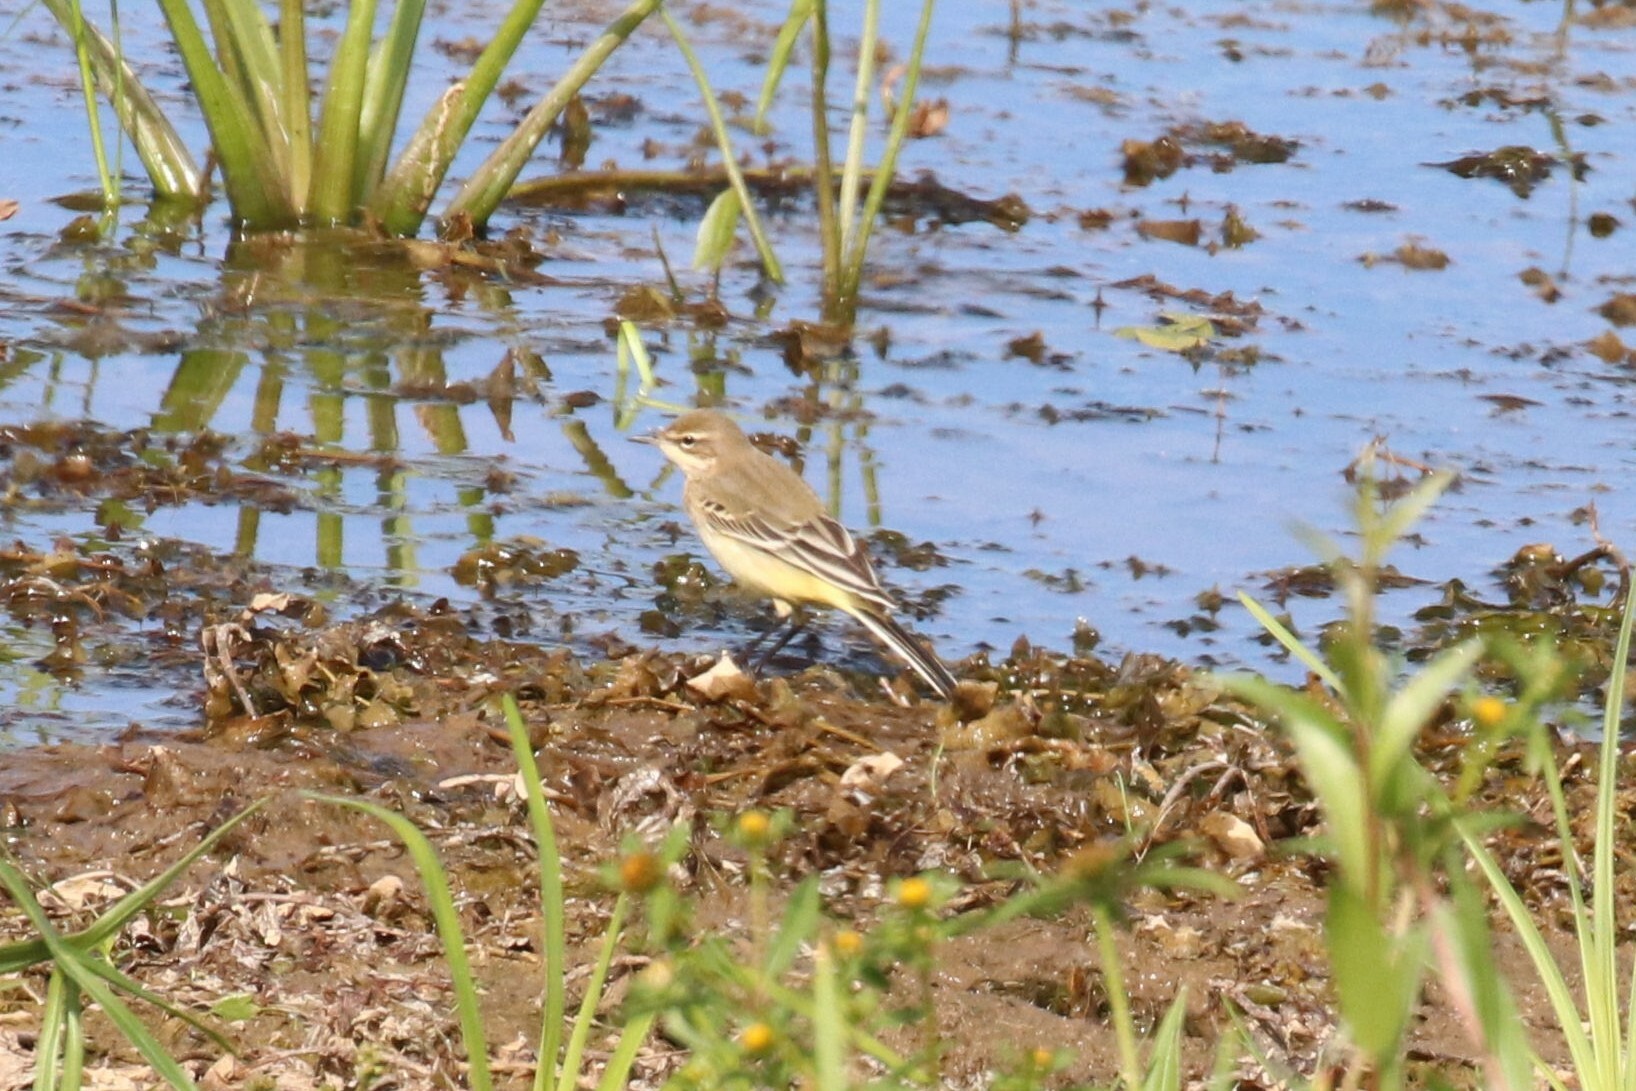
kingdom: Animalia
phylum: Chordata
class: Aves
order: Passeriformes
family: Motacillidae
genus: Motacilla
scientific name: Motacilla flava
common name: Western yellow wagtail
